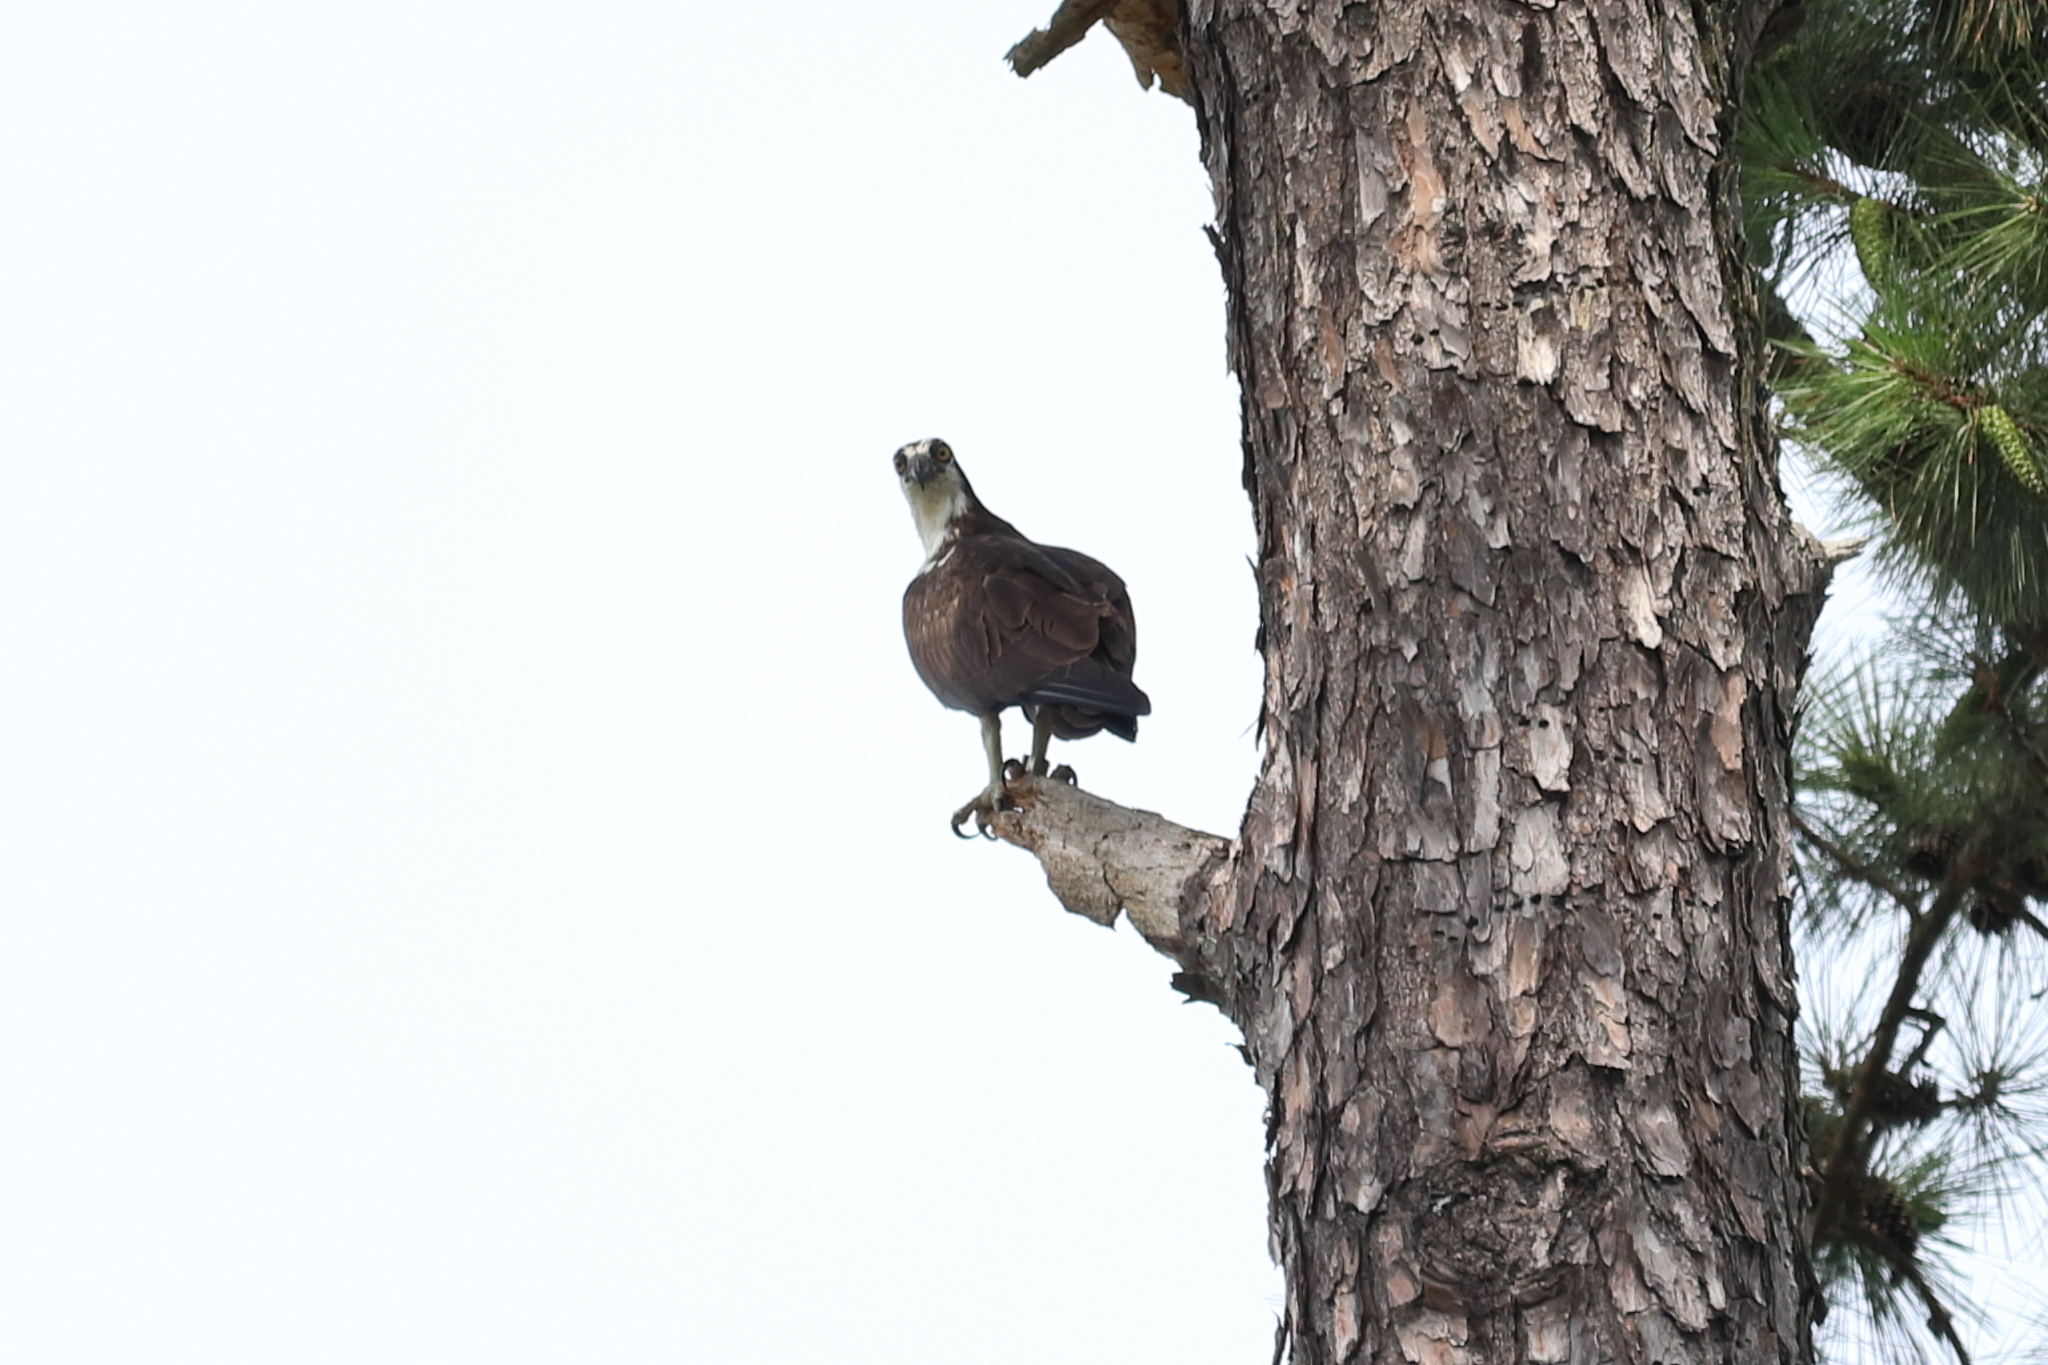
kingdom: Animalia
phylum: Chordata
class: Aves
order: Accipitriformes
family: Pandionidae
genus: Pandion
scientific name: Pandion haliaetus
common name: Osprey
